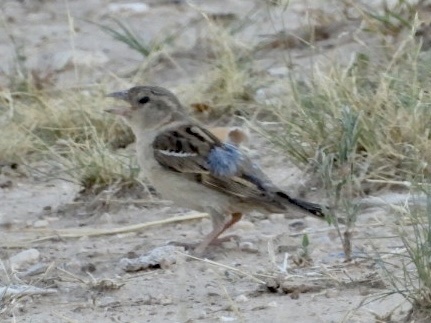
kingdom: Animalia
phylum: Chordata
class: Aves
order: Passeriformes
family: Passeridae
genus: Passer
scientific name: Passer domesticus
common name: House sparrow
